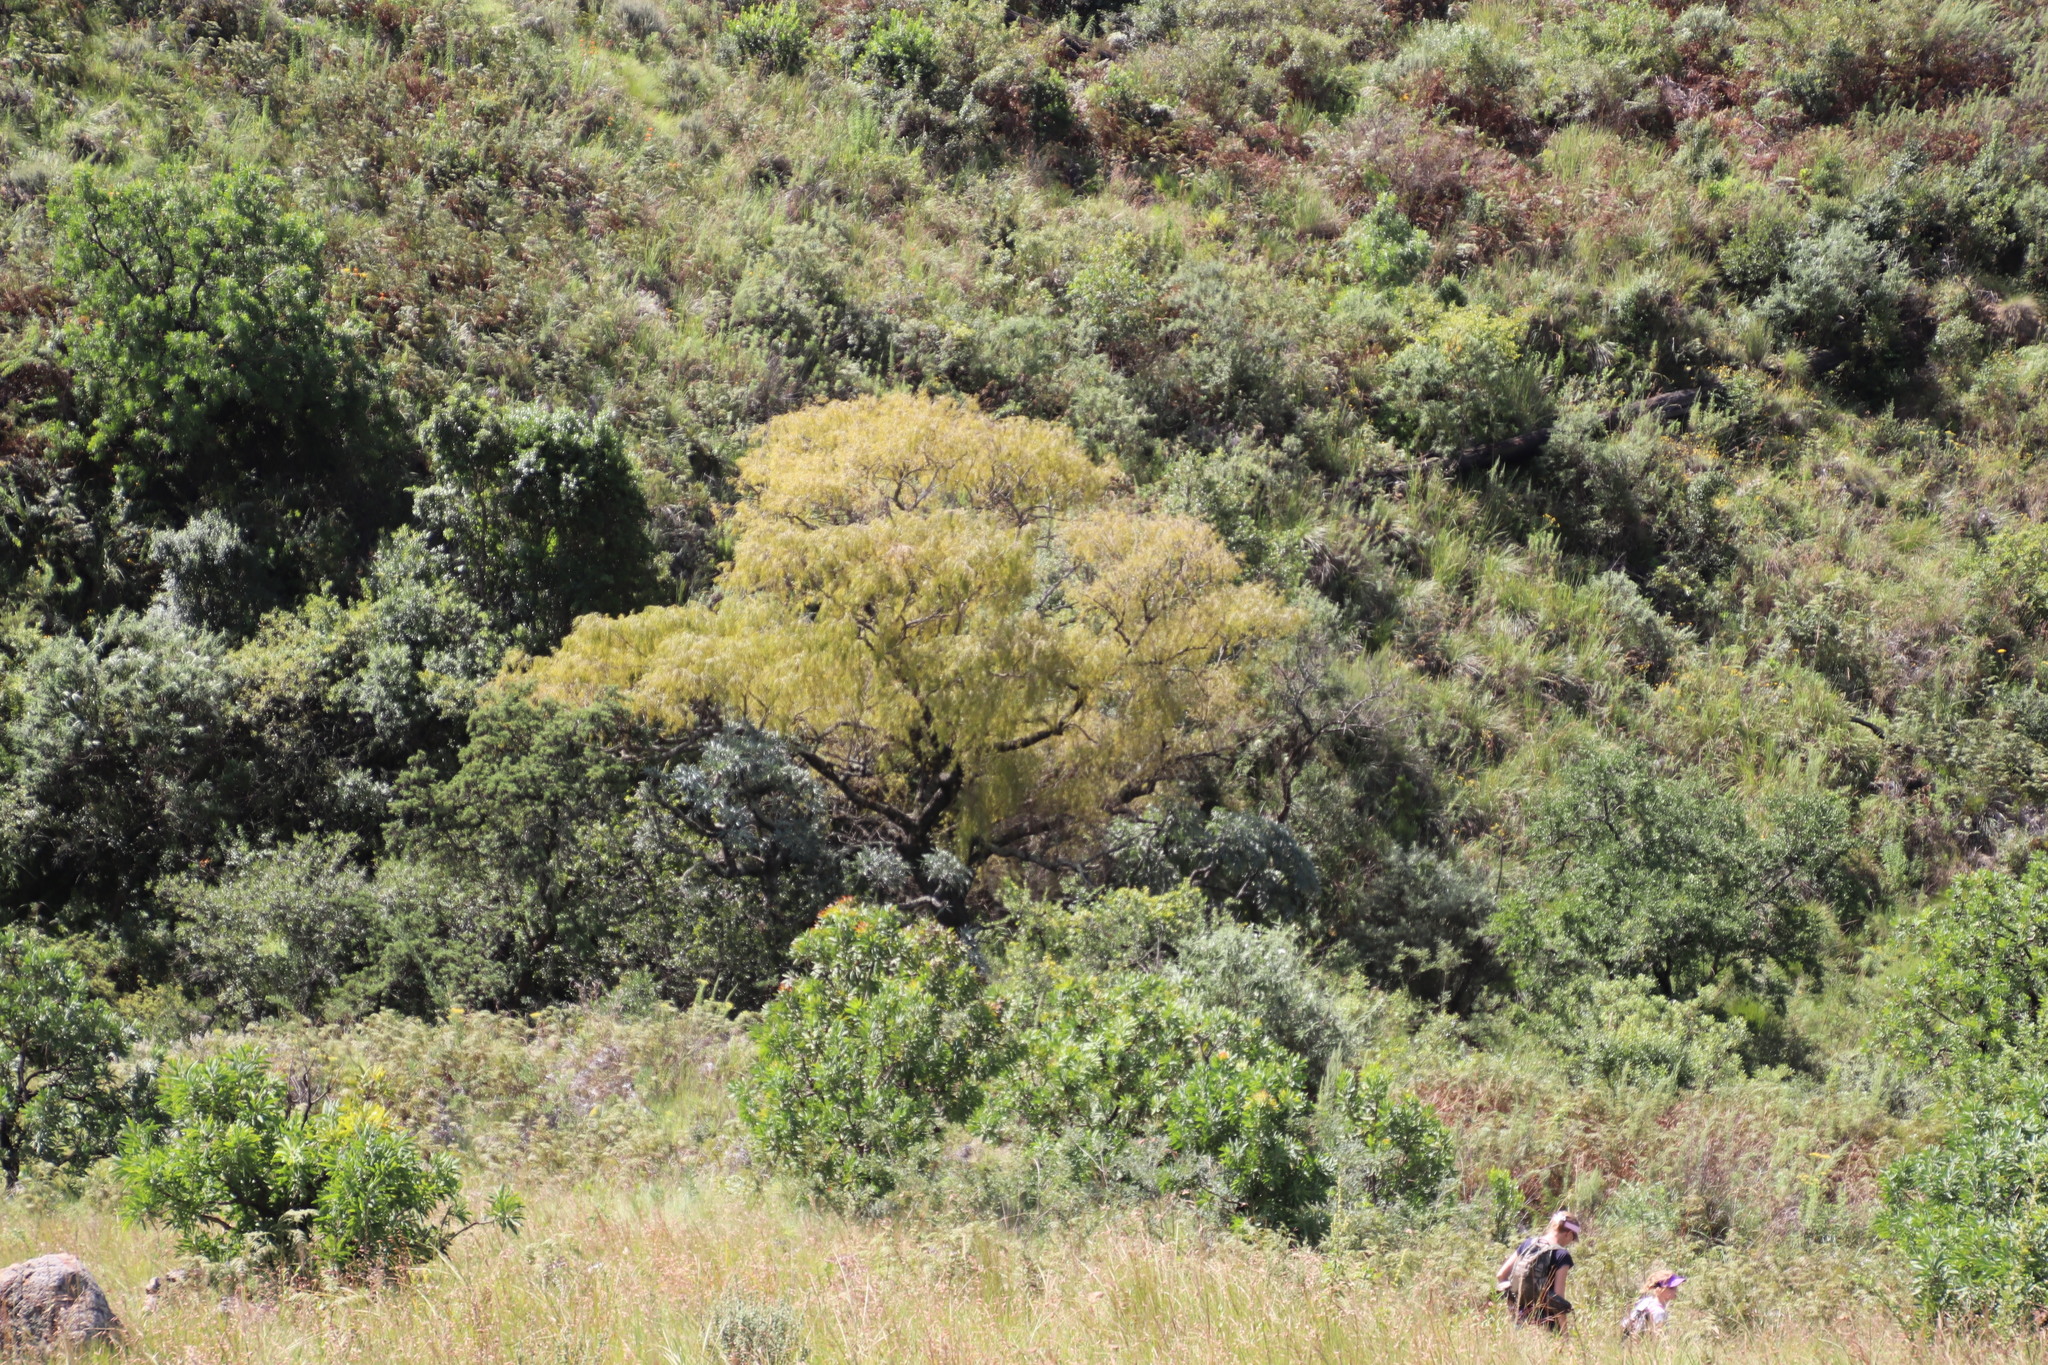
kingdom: Plantae
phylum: Tracheophyta
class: Magnoliopsida
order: Malpighiales
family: Salicaceae
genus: Salix
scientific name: Salix babylonica
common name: Weeping willow
